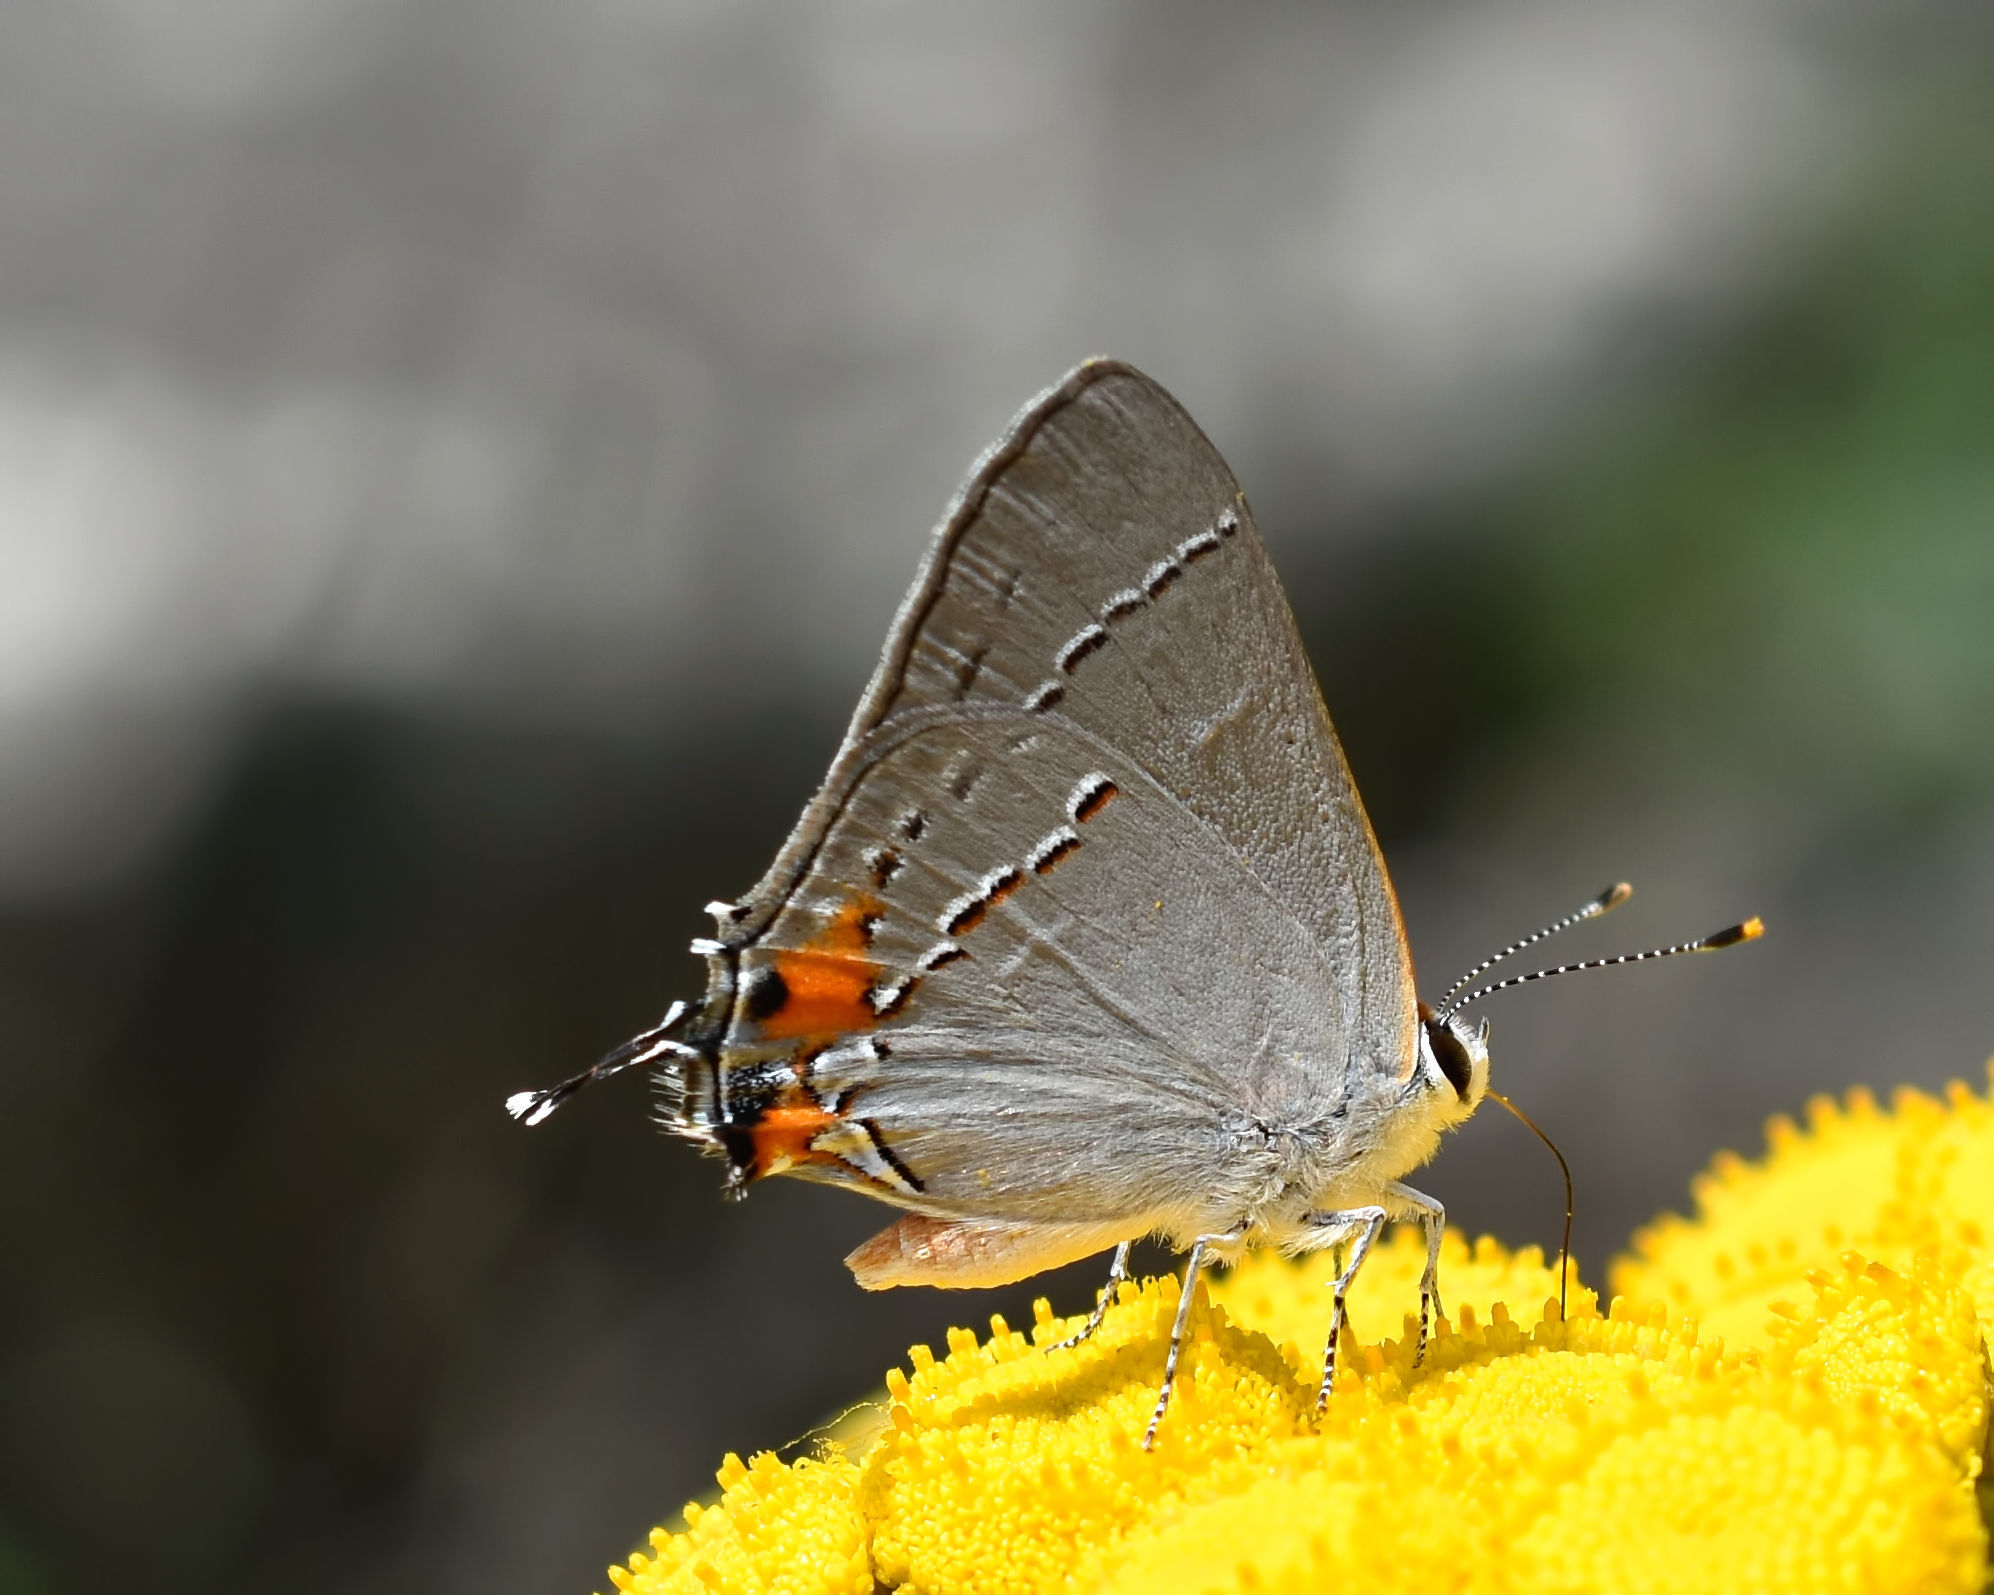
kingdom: Animalia
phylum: Arthropoda
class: Insecta
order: Lepidoptera
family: Lycaenidae
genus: Strymon
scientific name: Strymon melinus
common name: Gray hairstreak
